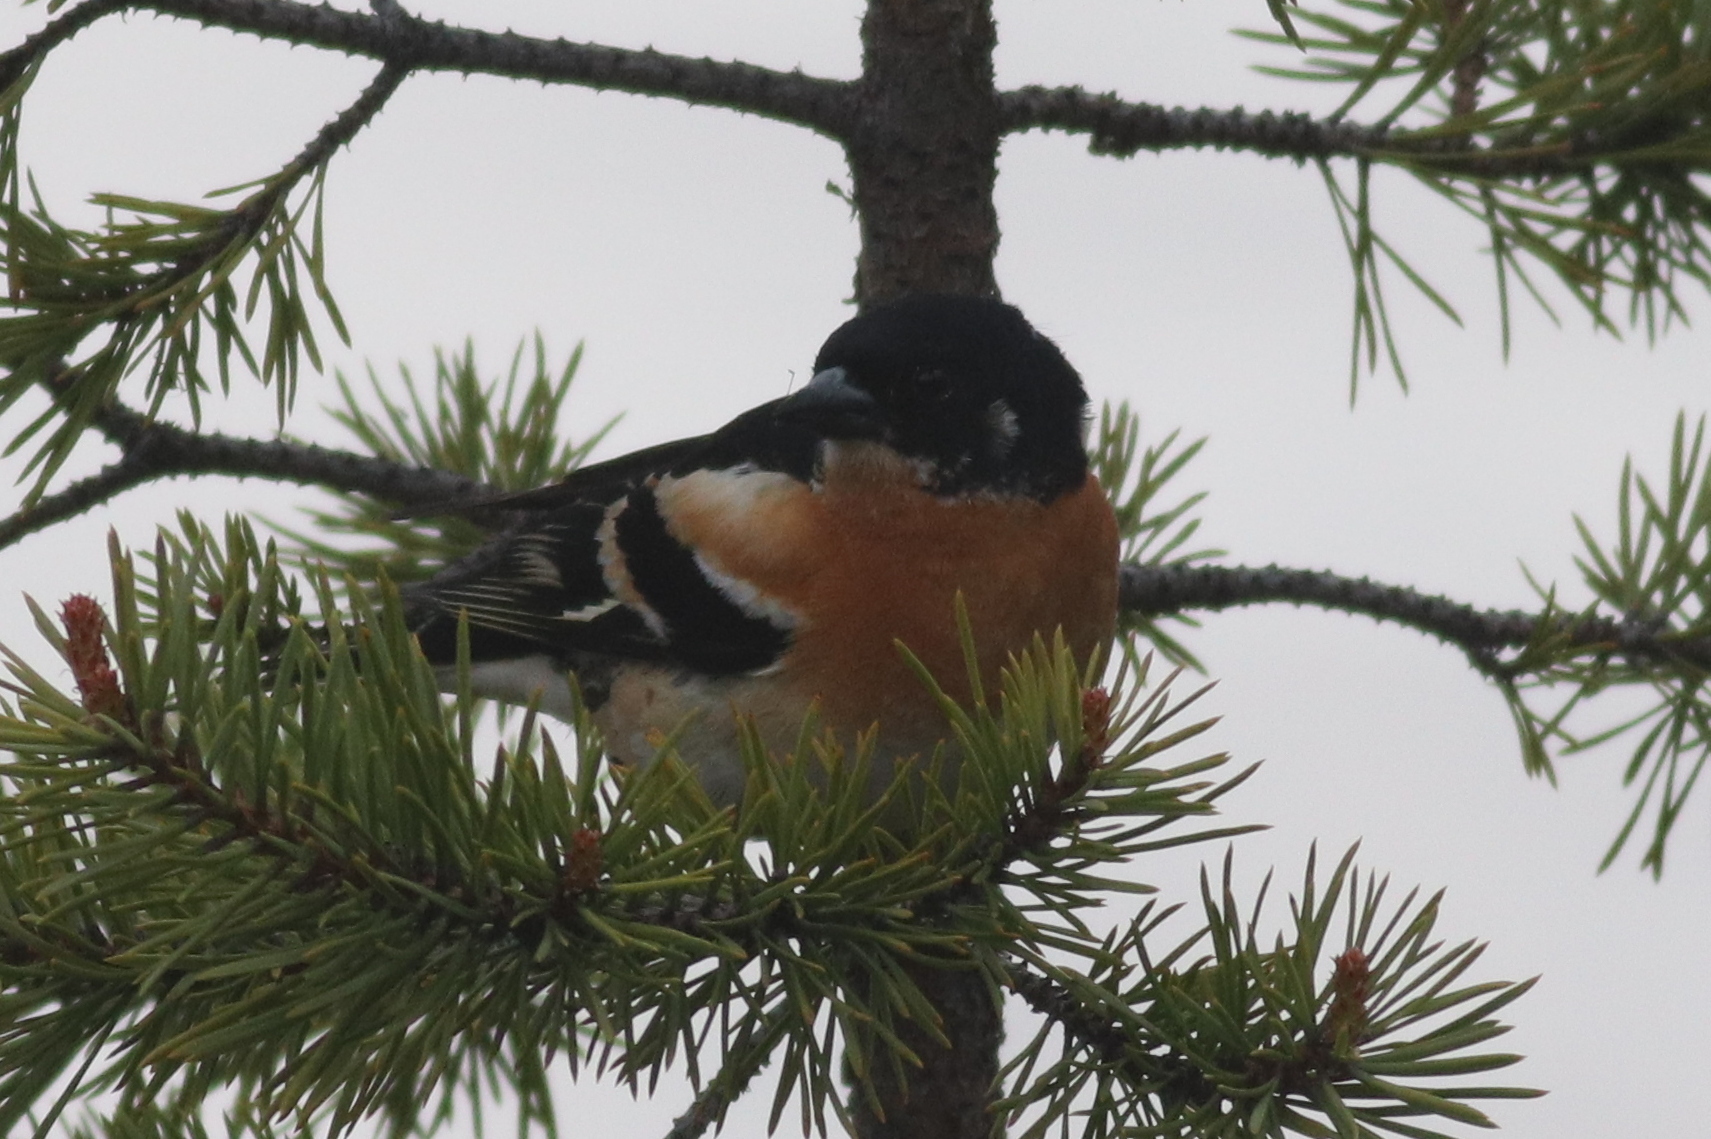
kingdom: Animalia
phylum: Chordata
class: Aves
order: Passeriformes
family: Fringillidae
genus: Fringilla
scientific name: Fringilla montifringilla
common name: Brambling
